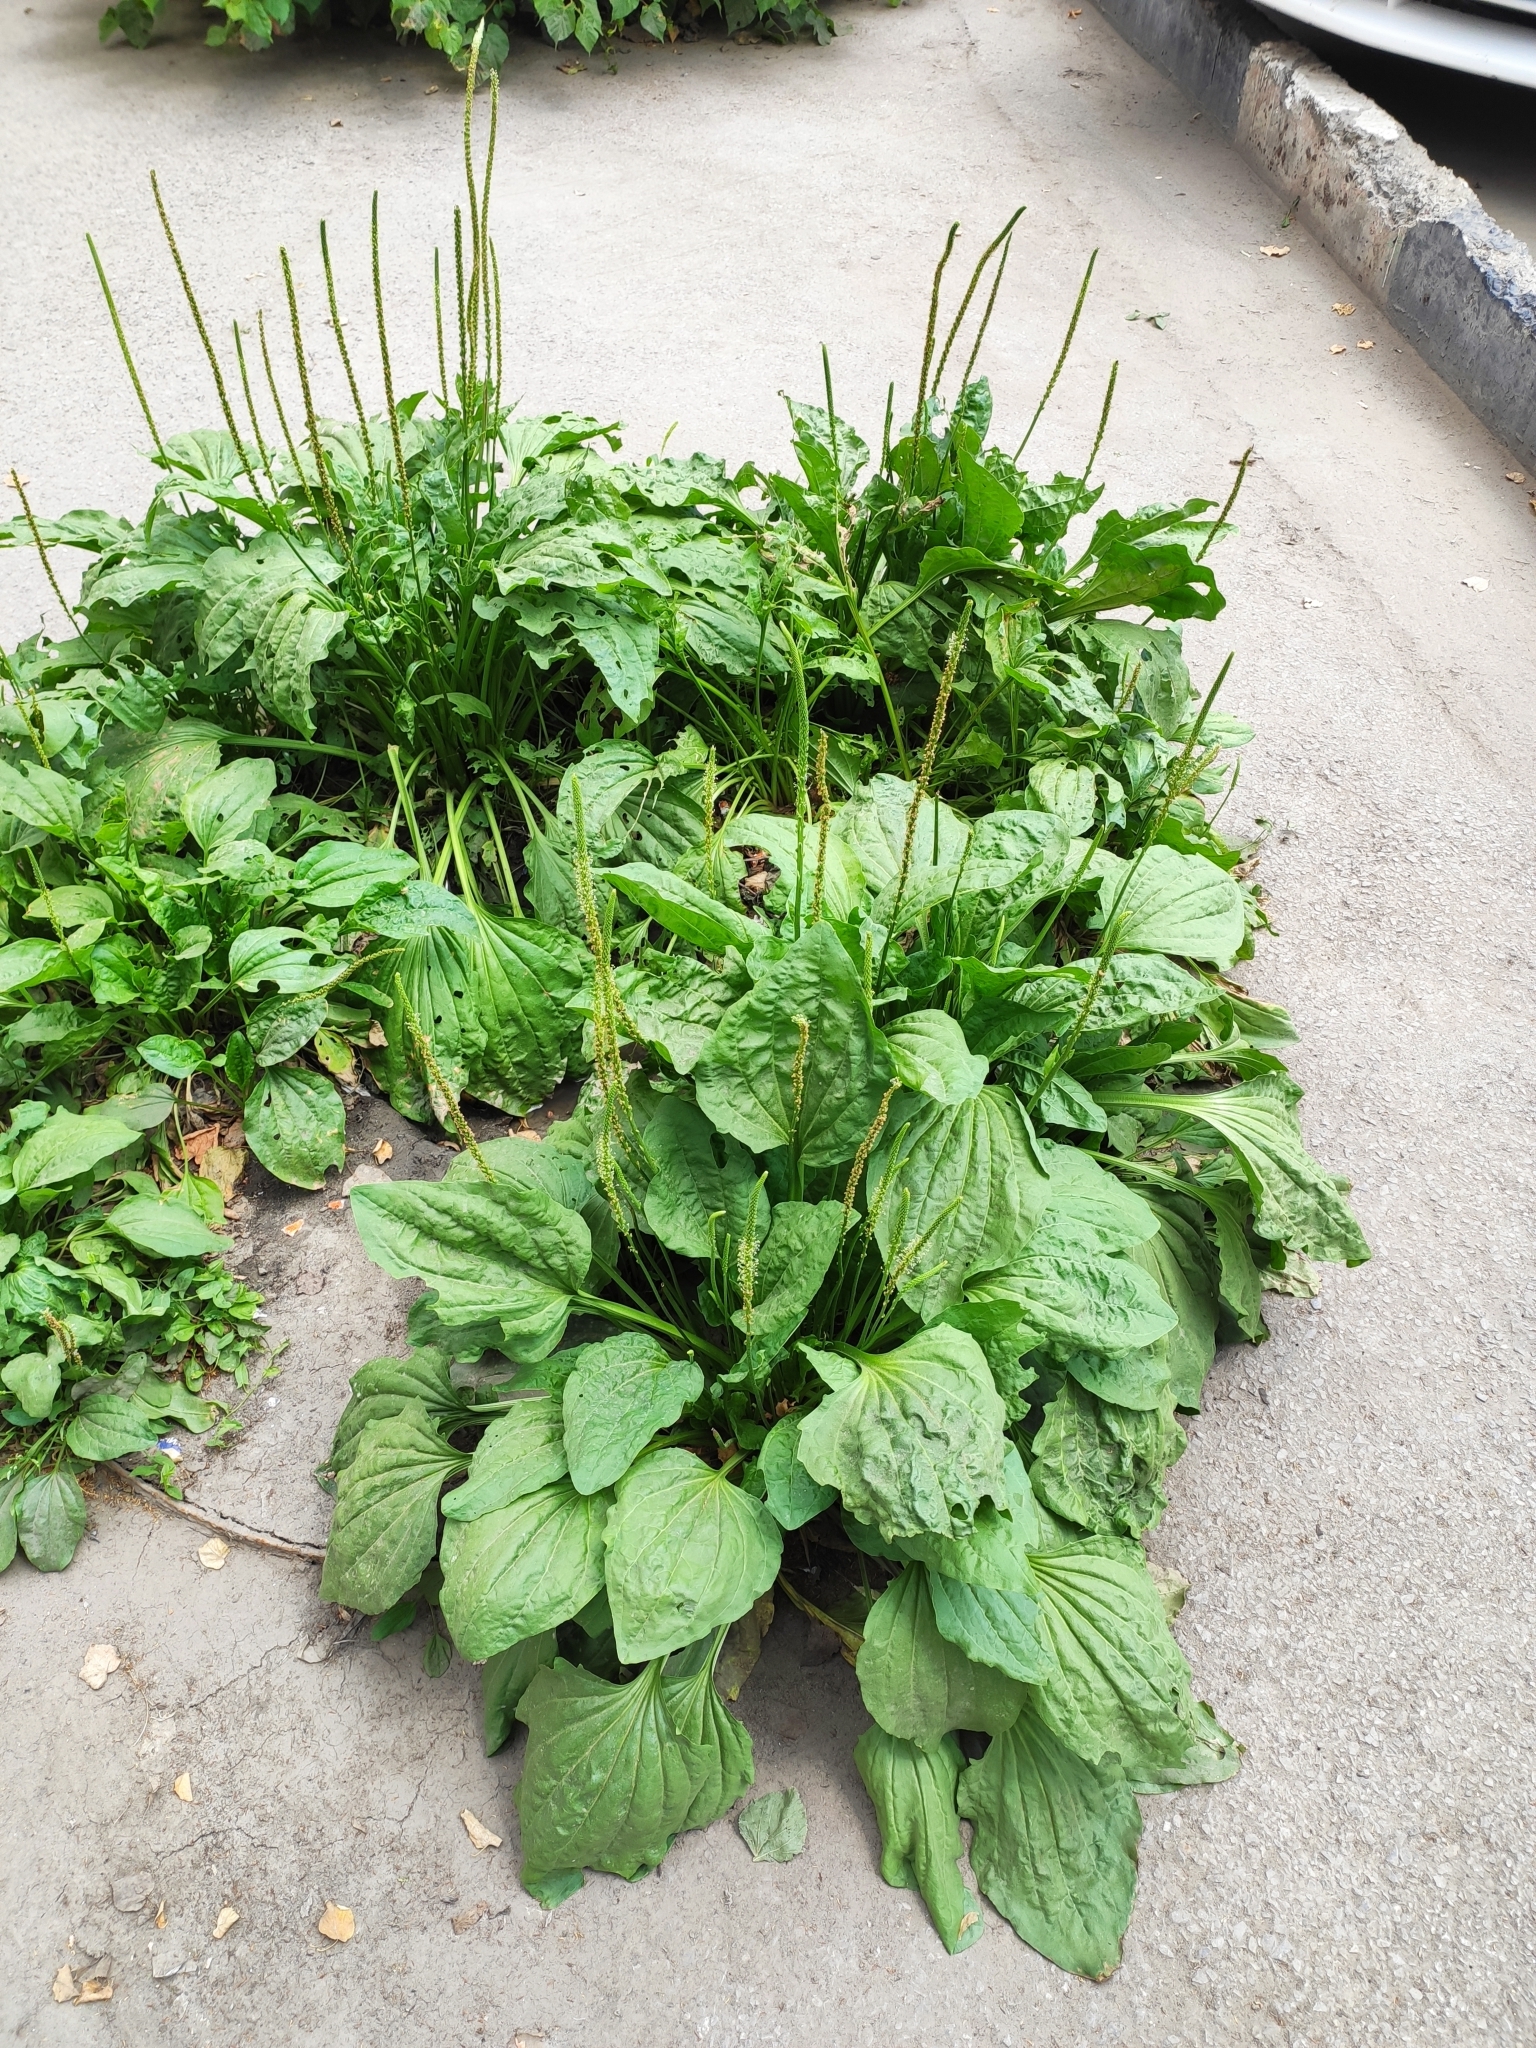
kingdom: Plantae
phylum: Tracheophyta
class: Magnoliopsida
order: Lamiales
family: Plantaginaceae
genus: Plantago
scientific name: Plantago major
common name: Common plantain
